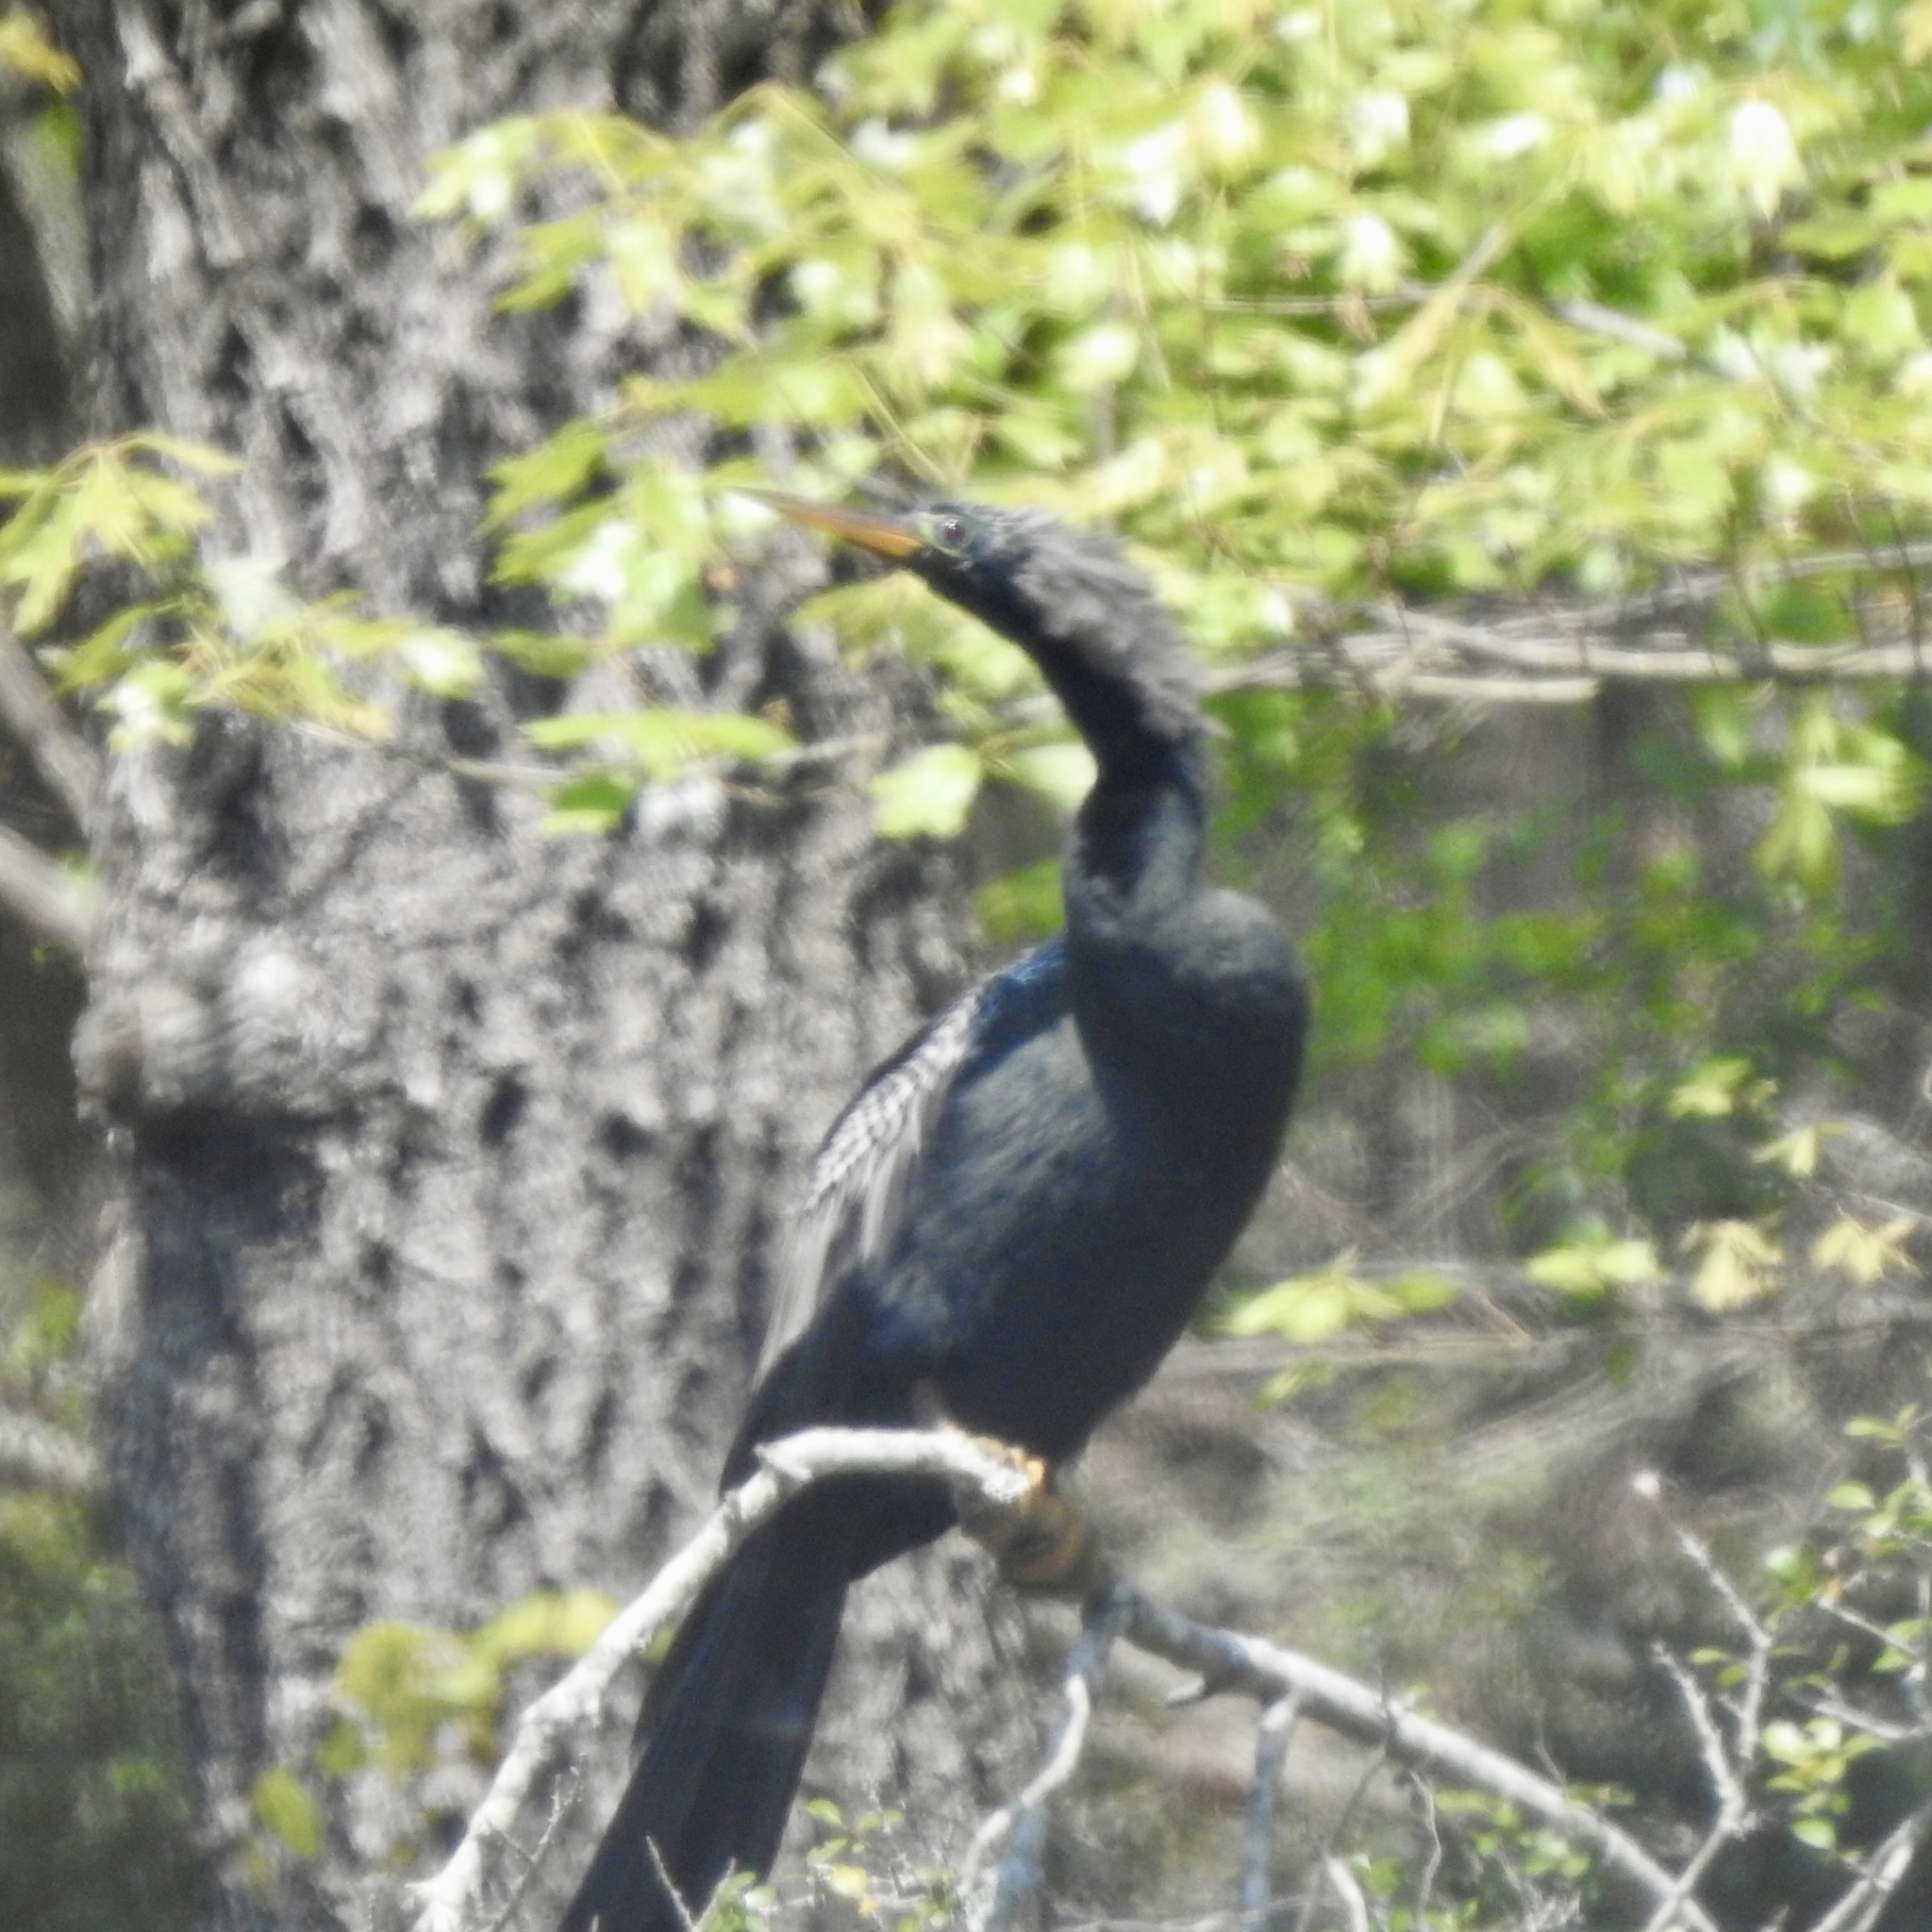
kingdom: Animalia
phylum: Chordata
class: Aves
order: Suliformes
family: Anhingidae
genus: Anhinga
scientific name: Anhinga anhinga
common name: Anhinga
